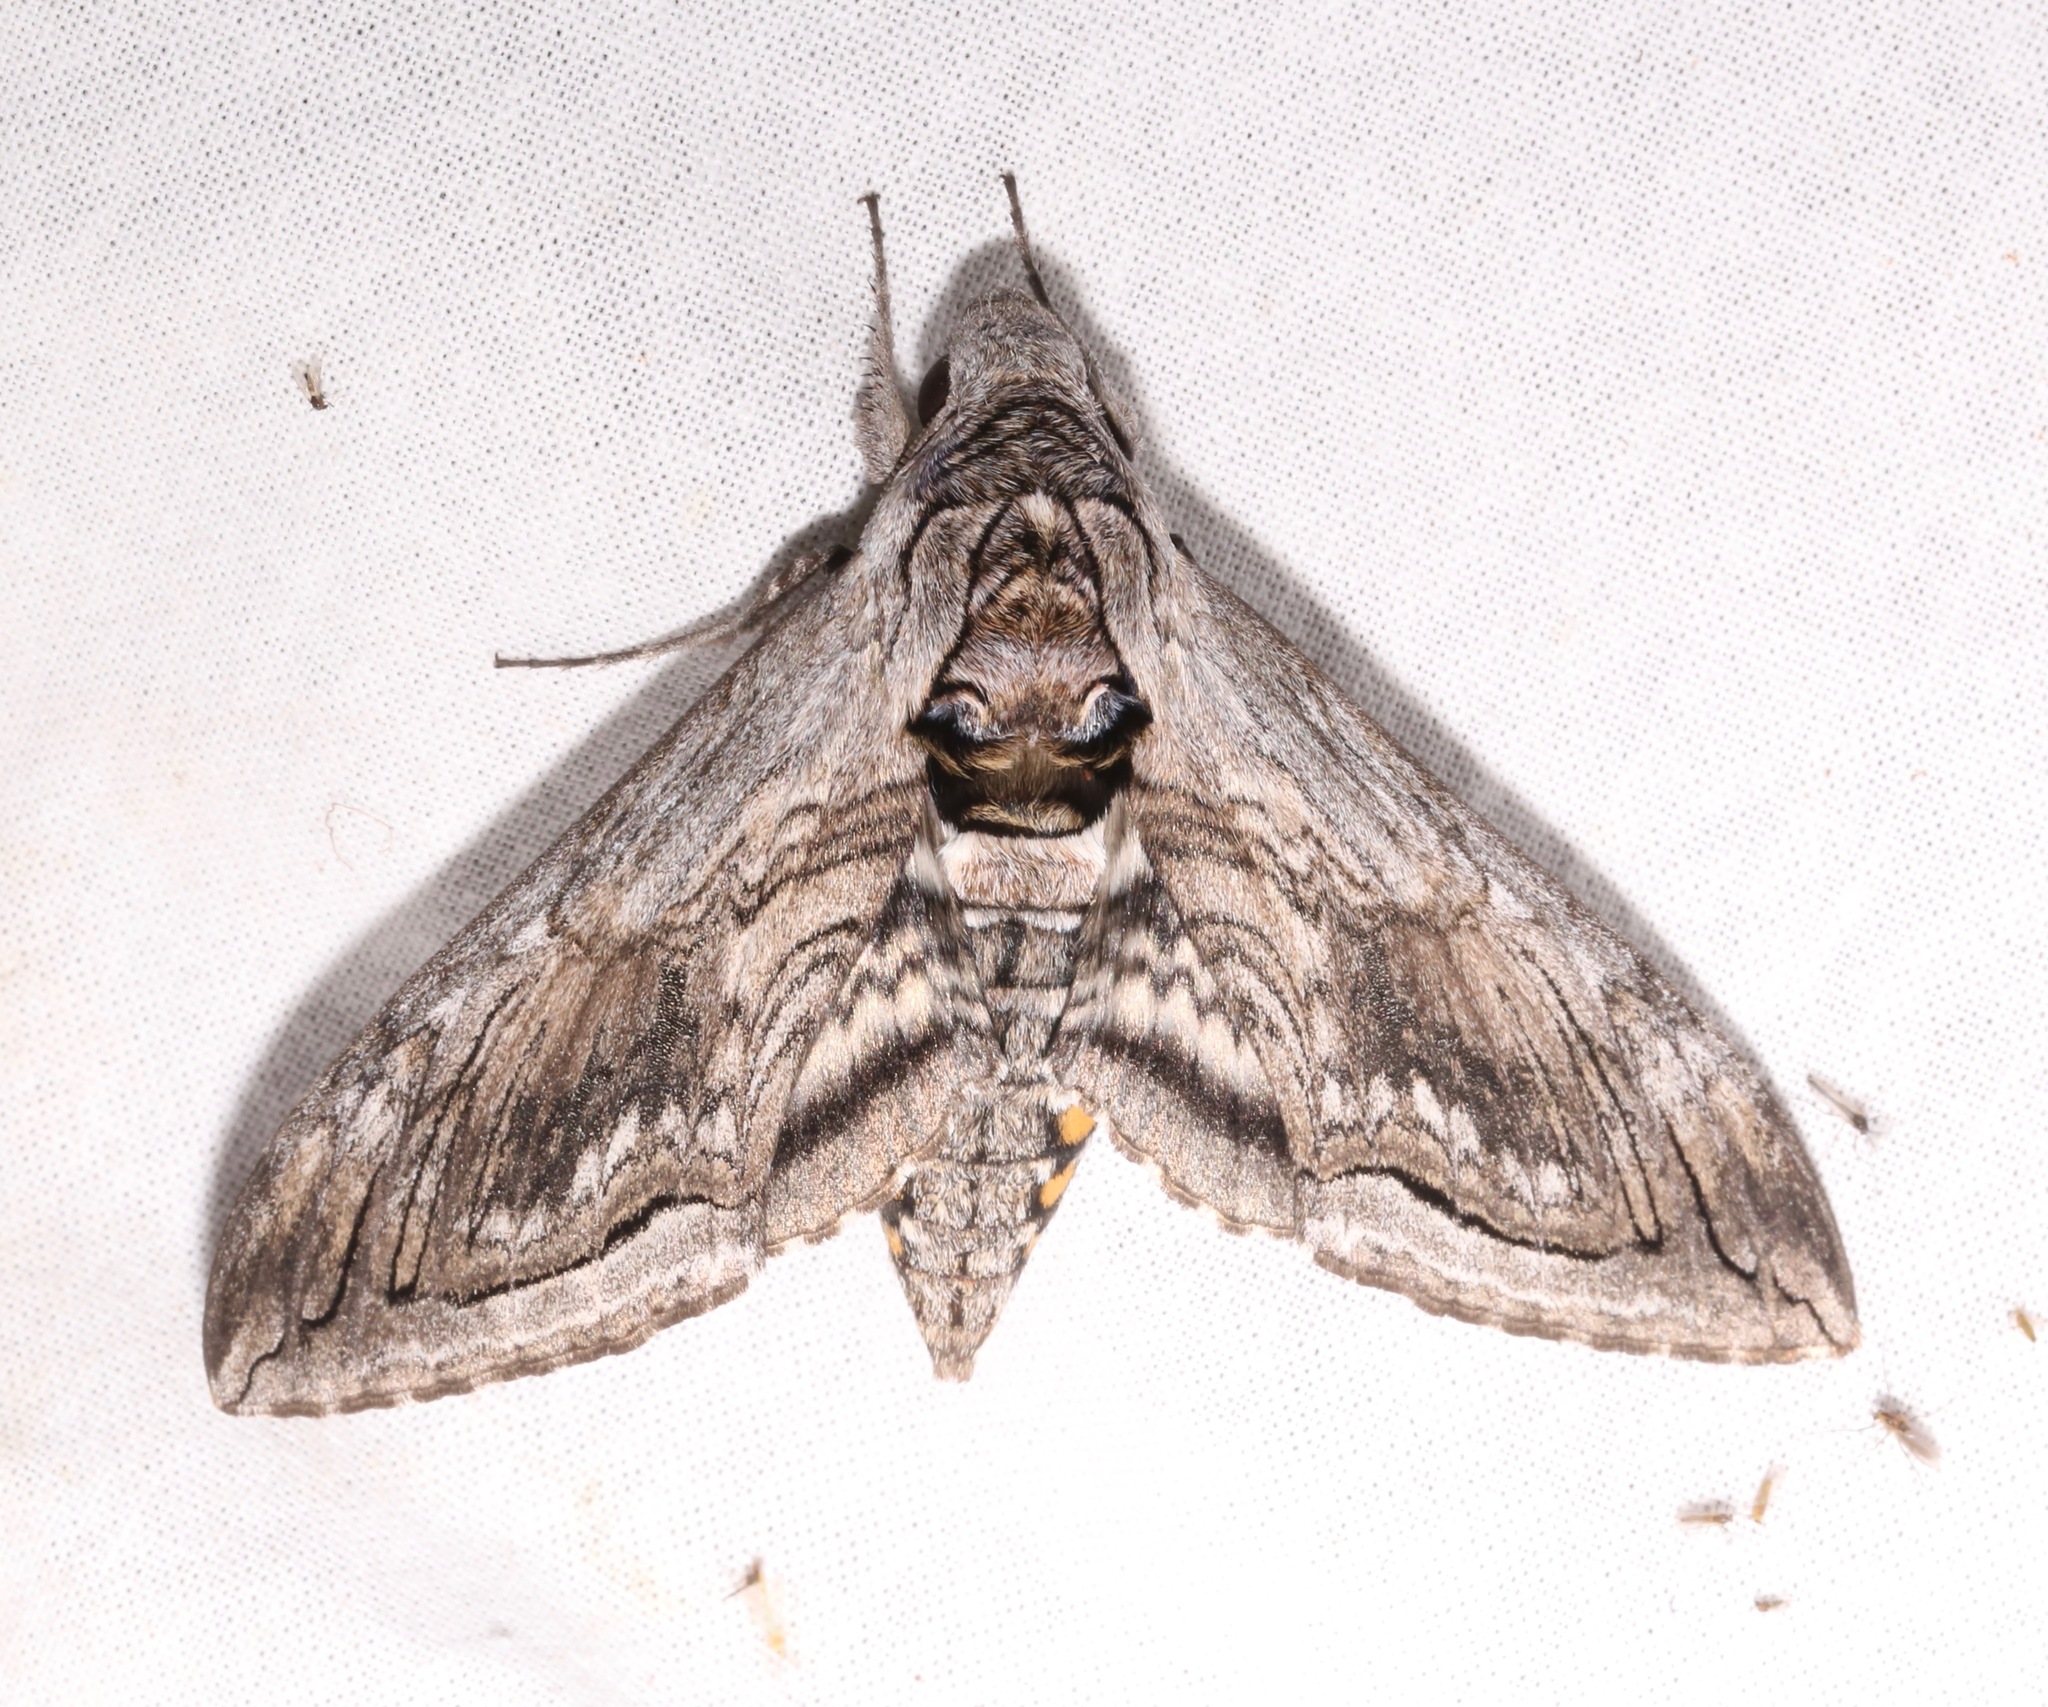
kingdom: Animalia
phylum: Arthropoda
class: Insecta
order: Lepidoptera
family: Sphingidae
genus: Manduca
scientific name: Manduca quinquemaculatus
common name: Five-spotted hawk-moth
